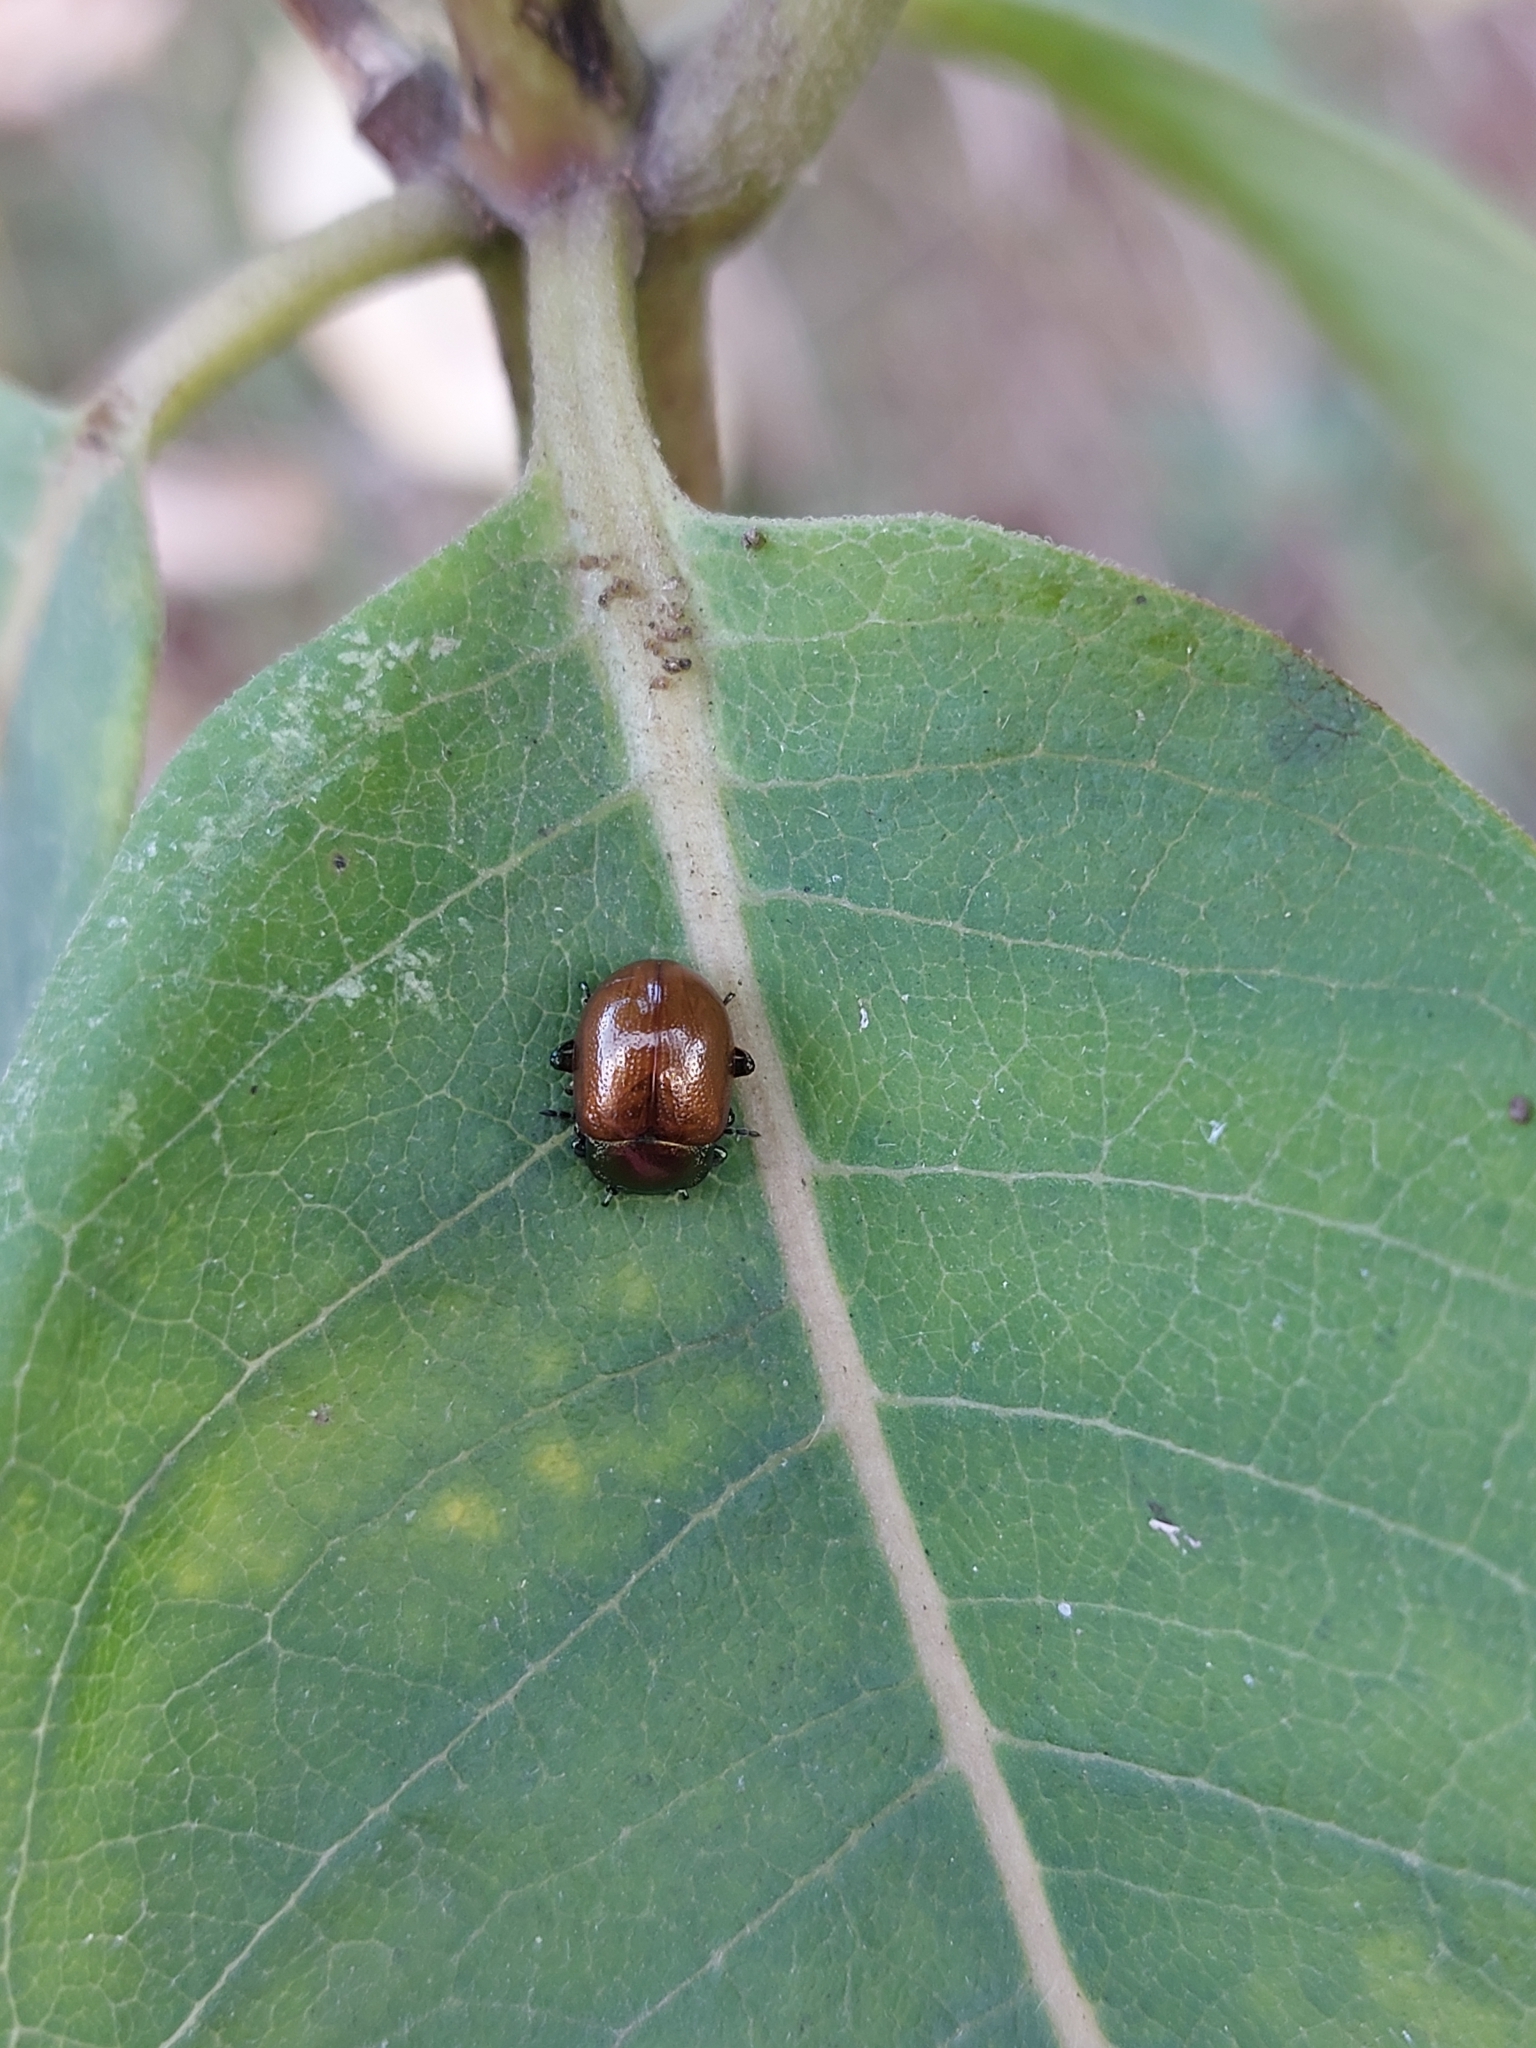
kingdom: Animalia
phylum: Arthropoda
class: Insecta
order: Coleoptera
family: Chrysomelidae
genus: Chrysomela
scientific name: Chrysomela polita
